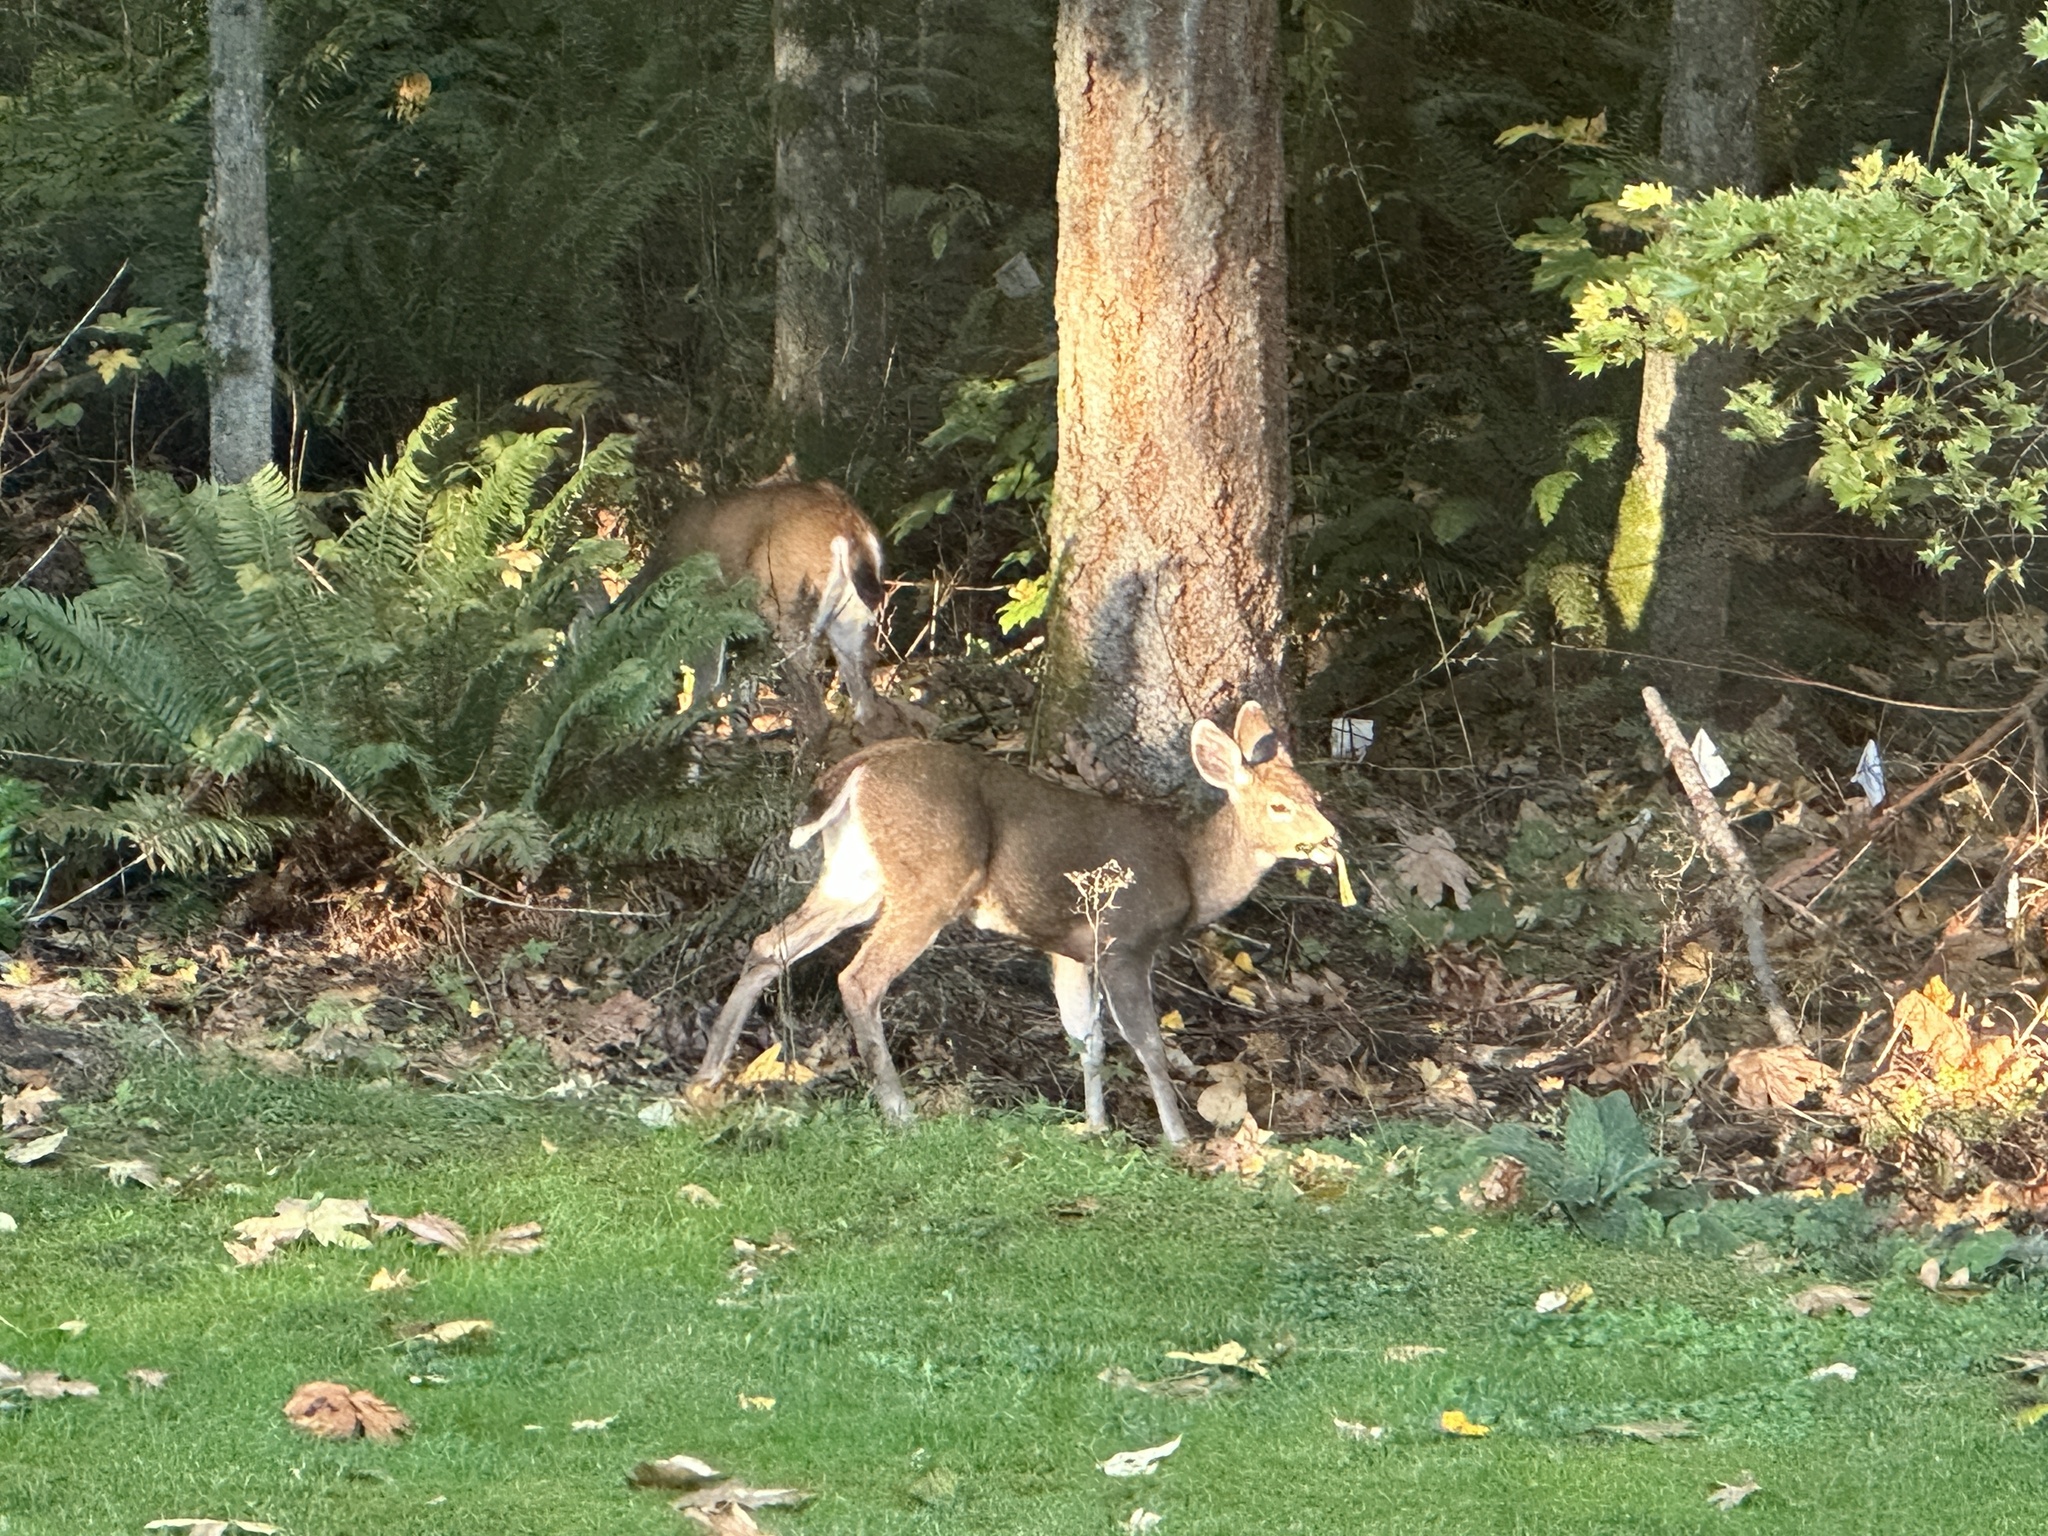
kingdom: Animalia
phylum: Chordata
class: Mammalia
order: Artiodactyla
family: Cervidae
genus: Odocoileus
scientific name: Odocoileus hemionus
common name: Mule deer
